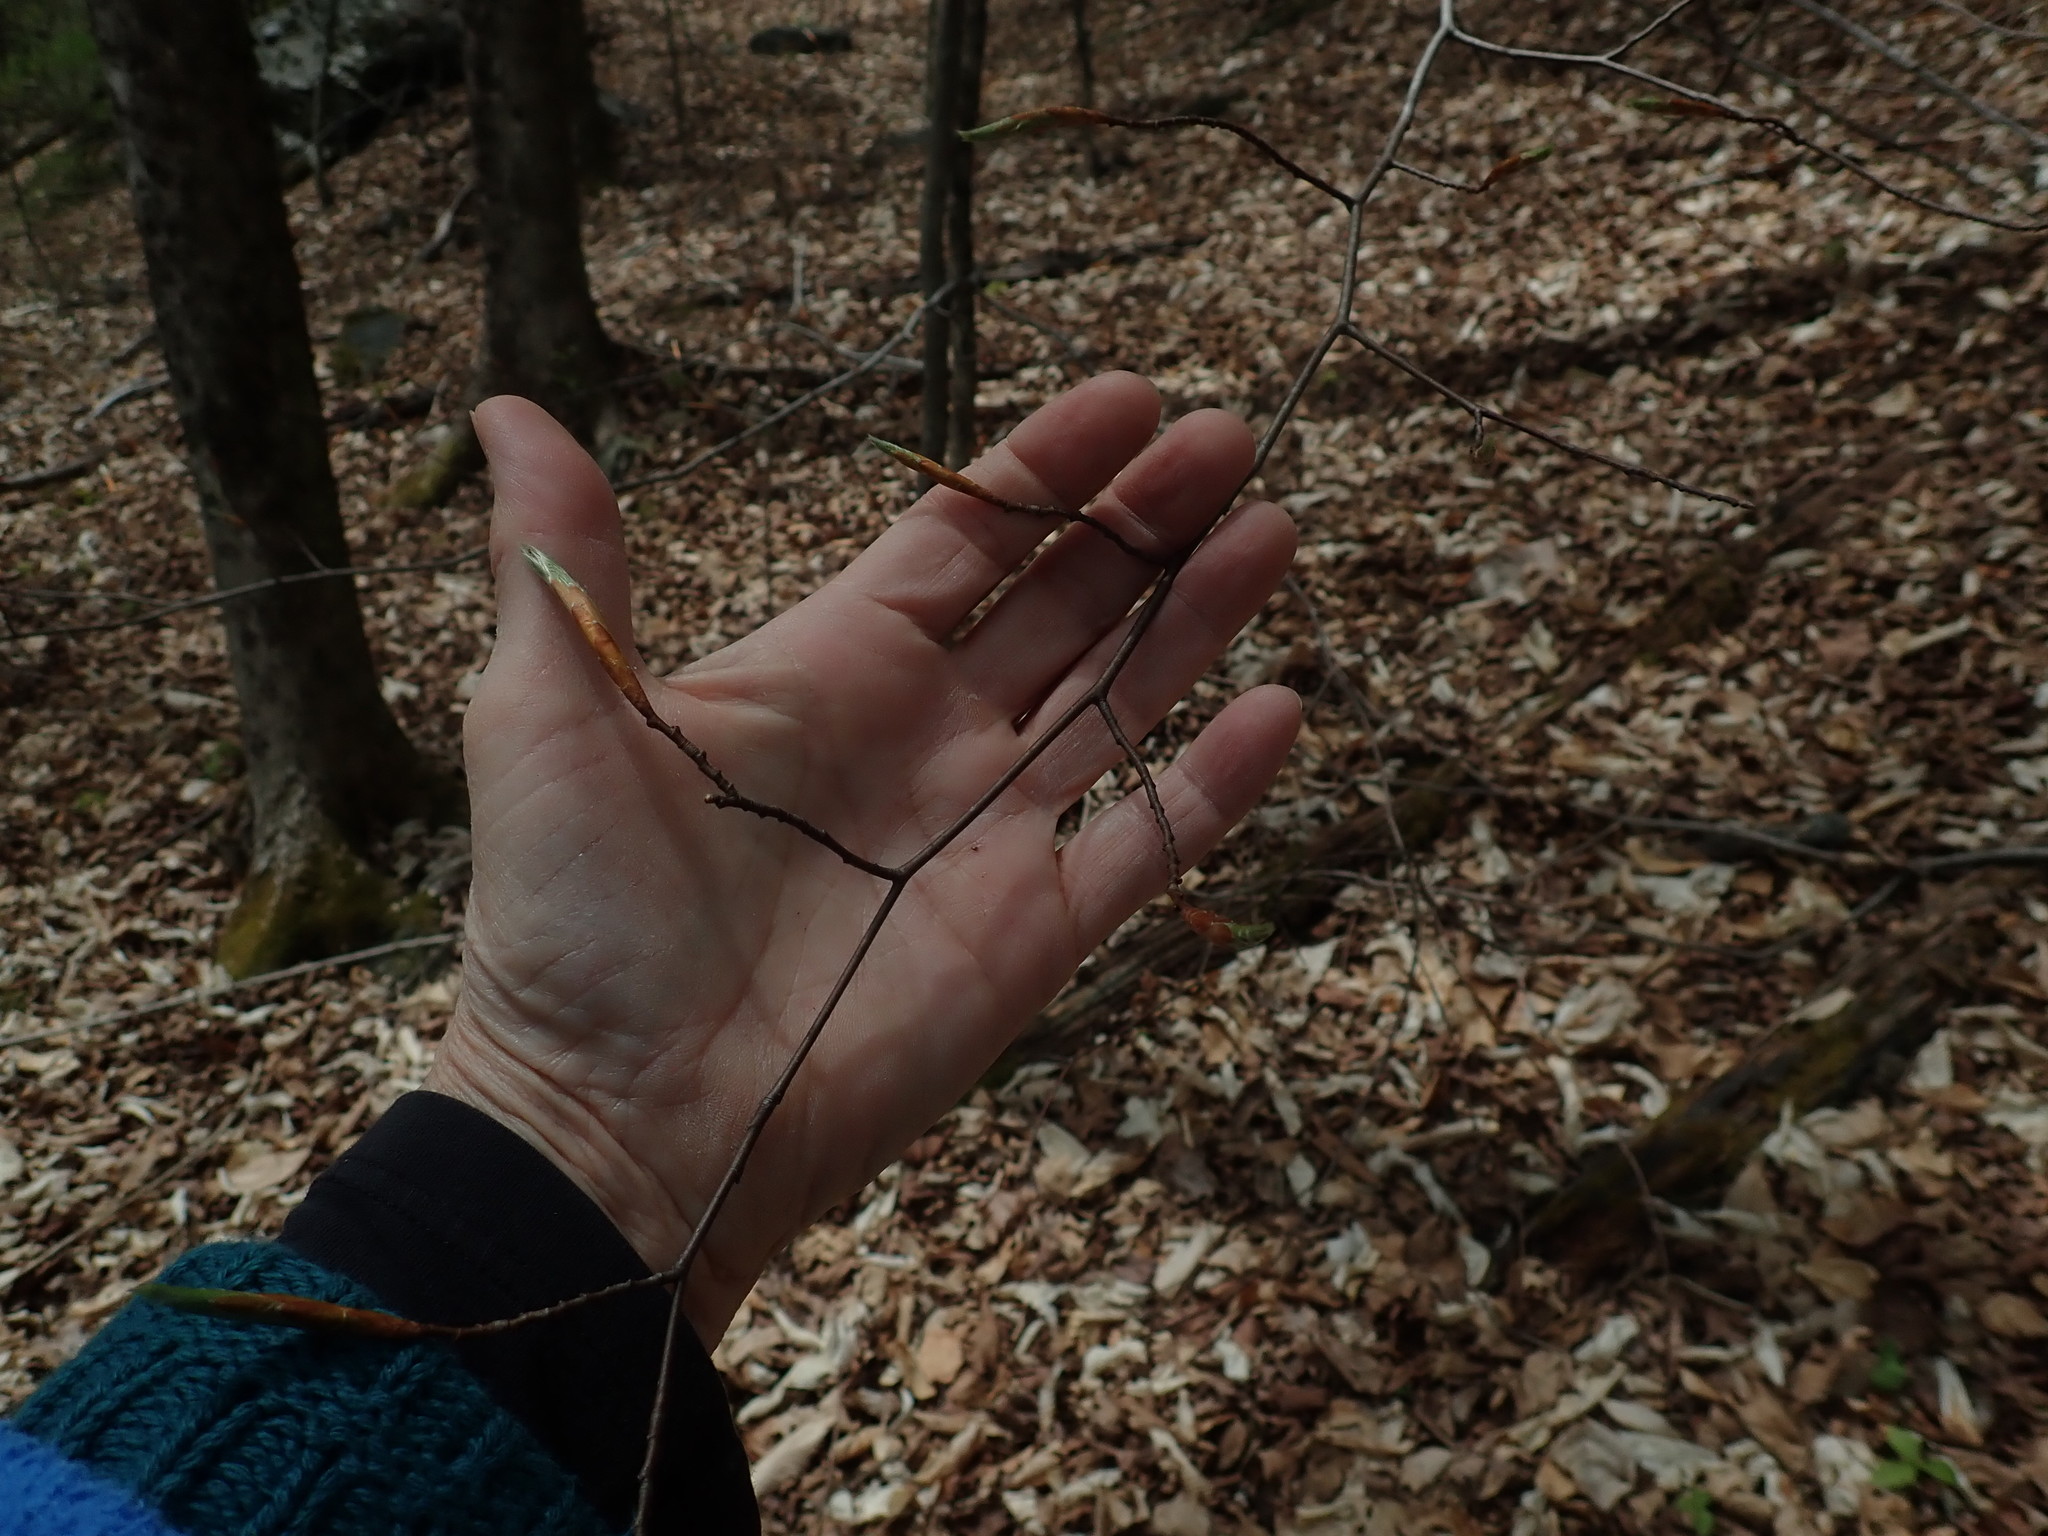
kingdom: Plantae
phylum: Tracheophyta
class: Magnoliopsida
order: Fagales
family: Fagaceae
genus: Fagus
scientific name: Fagus grandifolia
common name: American beech
